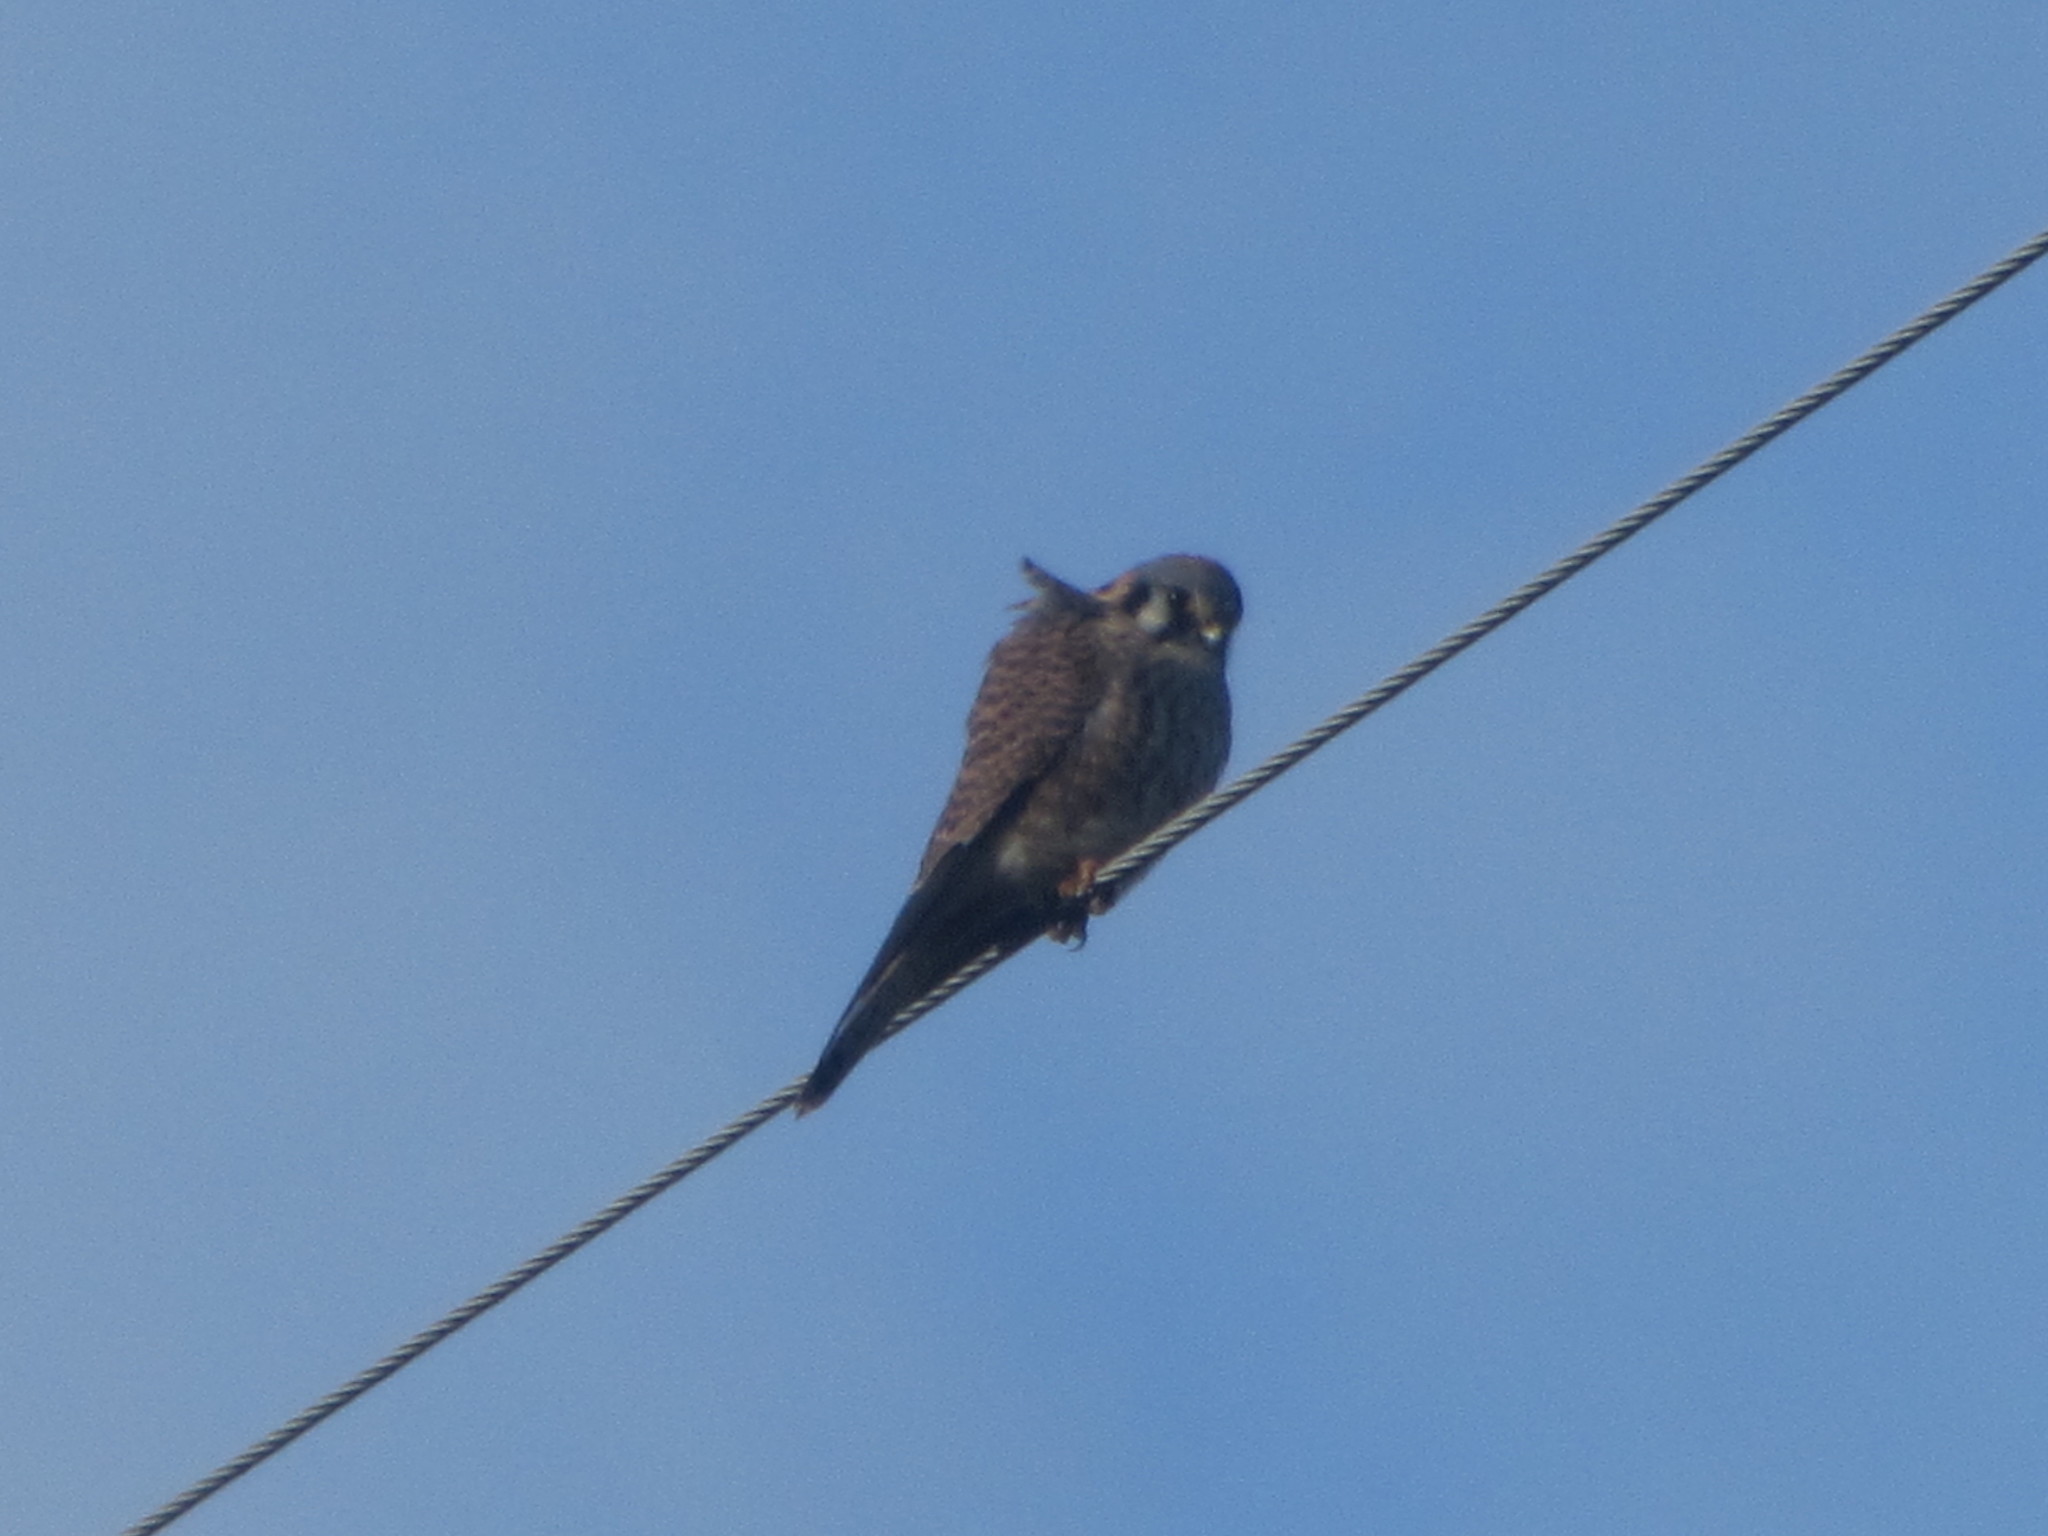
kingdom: Animalia
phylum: Chordata
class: Aves
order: Falconiformes
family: Falconidae
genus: Falco
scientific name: Falco sparverius
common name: American kestrel
